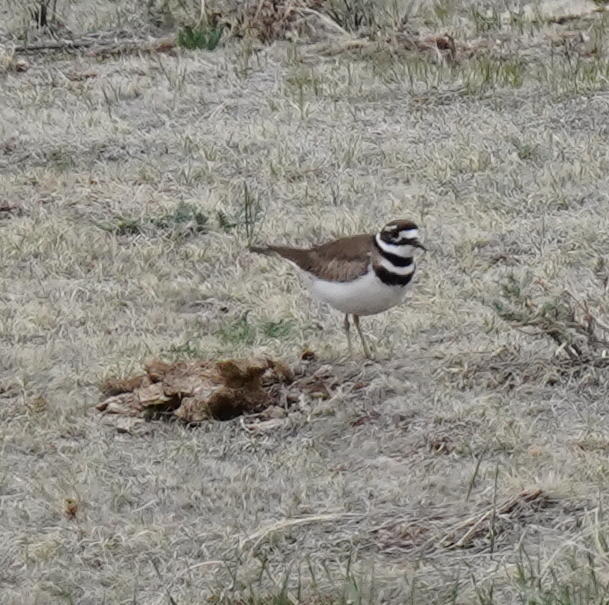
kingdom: Animalia
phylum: Chordata
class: Aves
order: Charadriiformes
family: Charadriidae
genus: Charadrius
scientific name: Charadrius vociferus
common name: Killdeer
